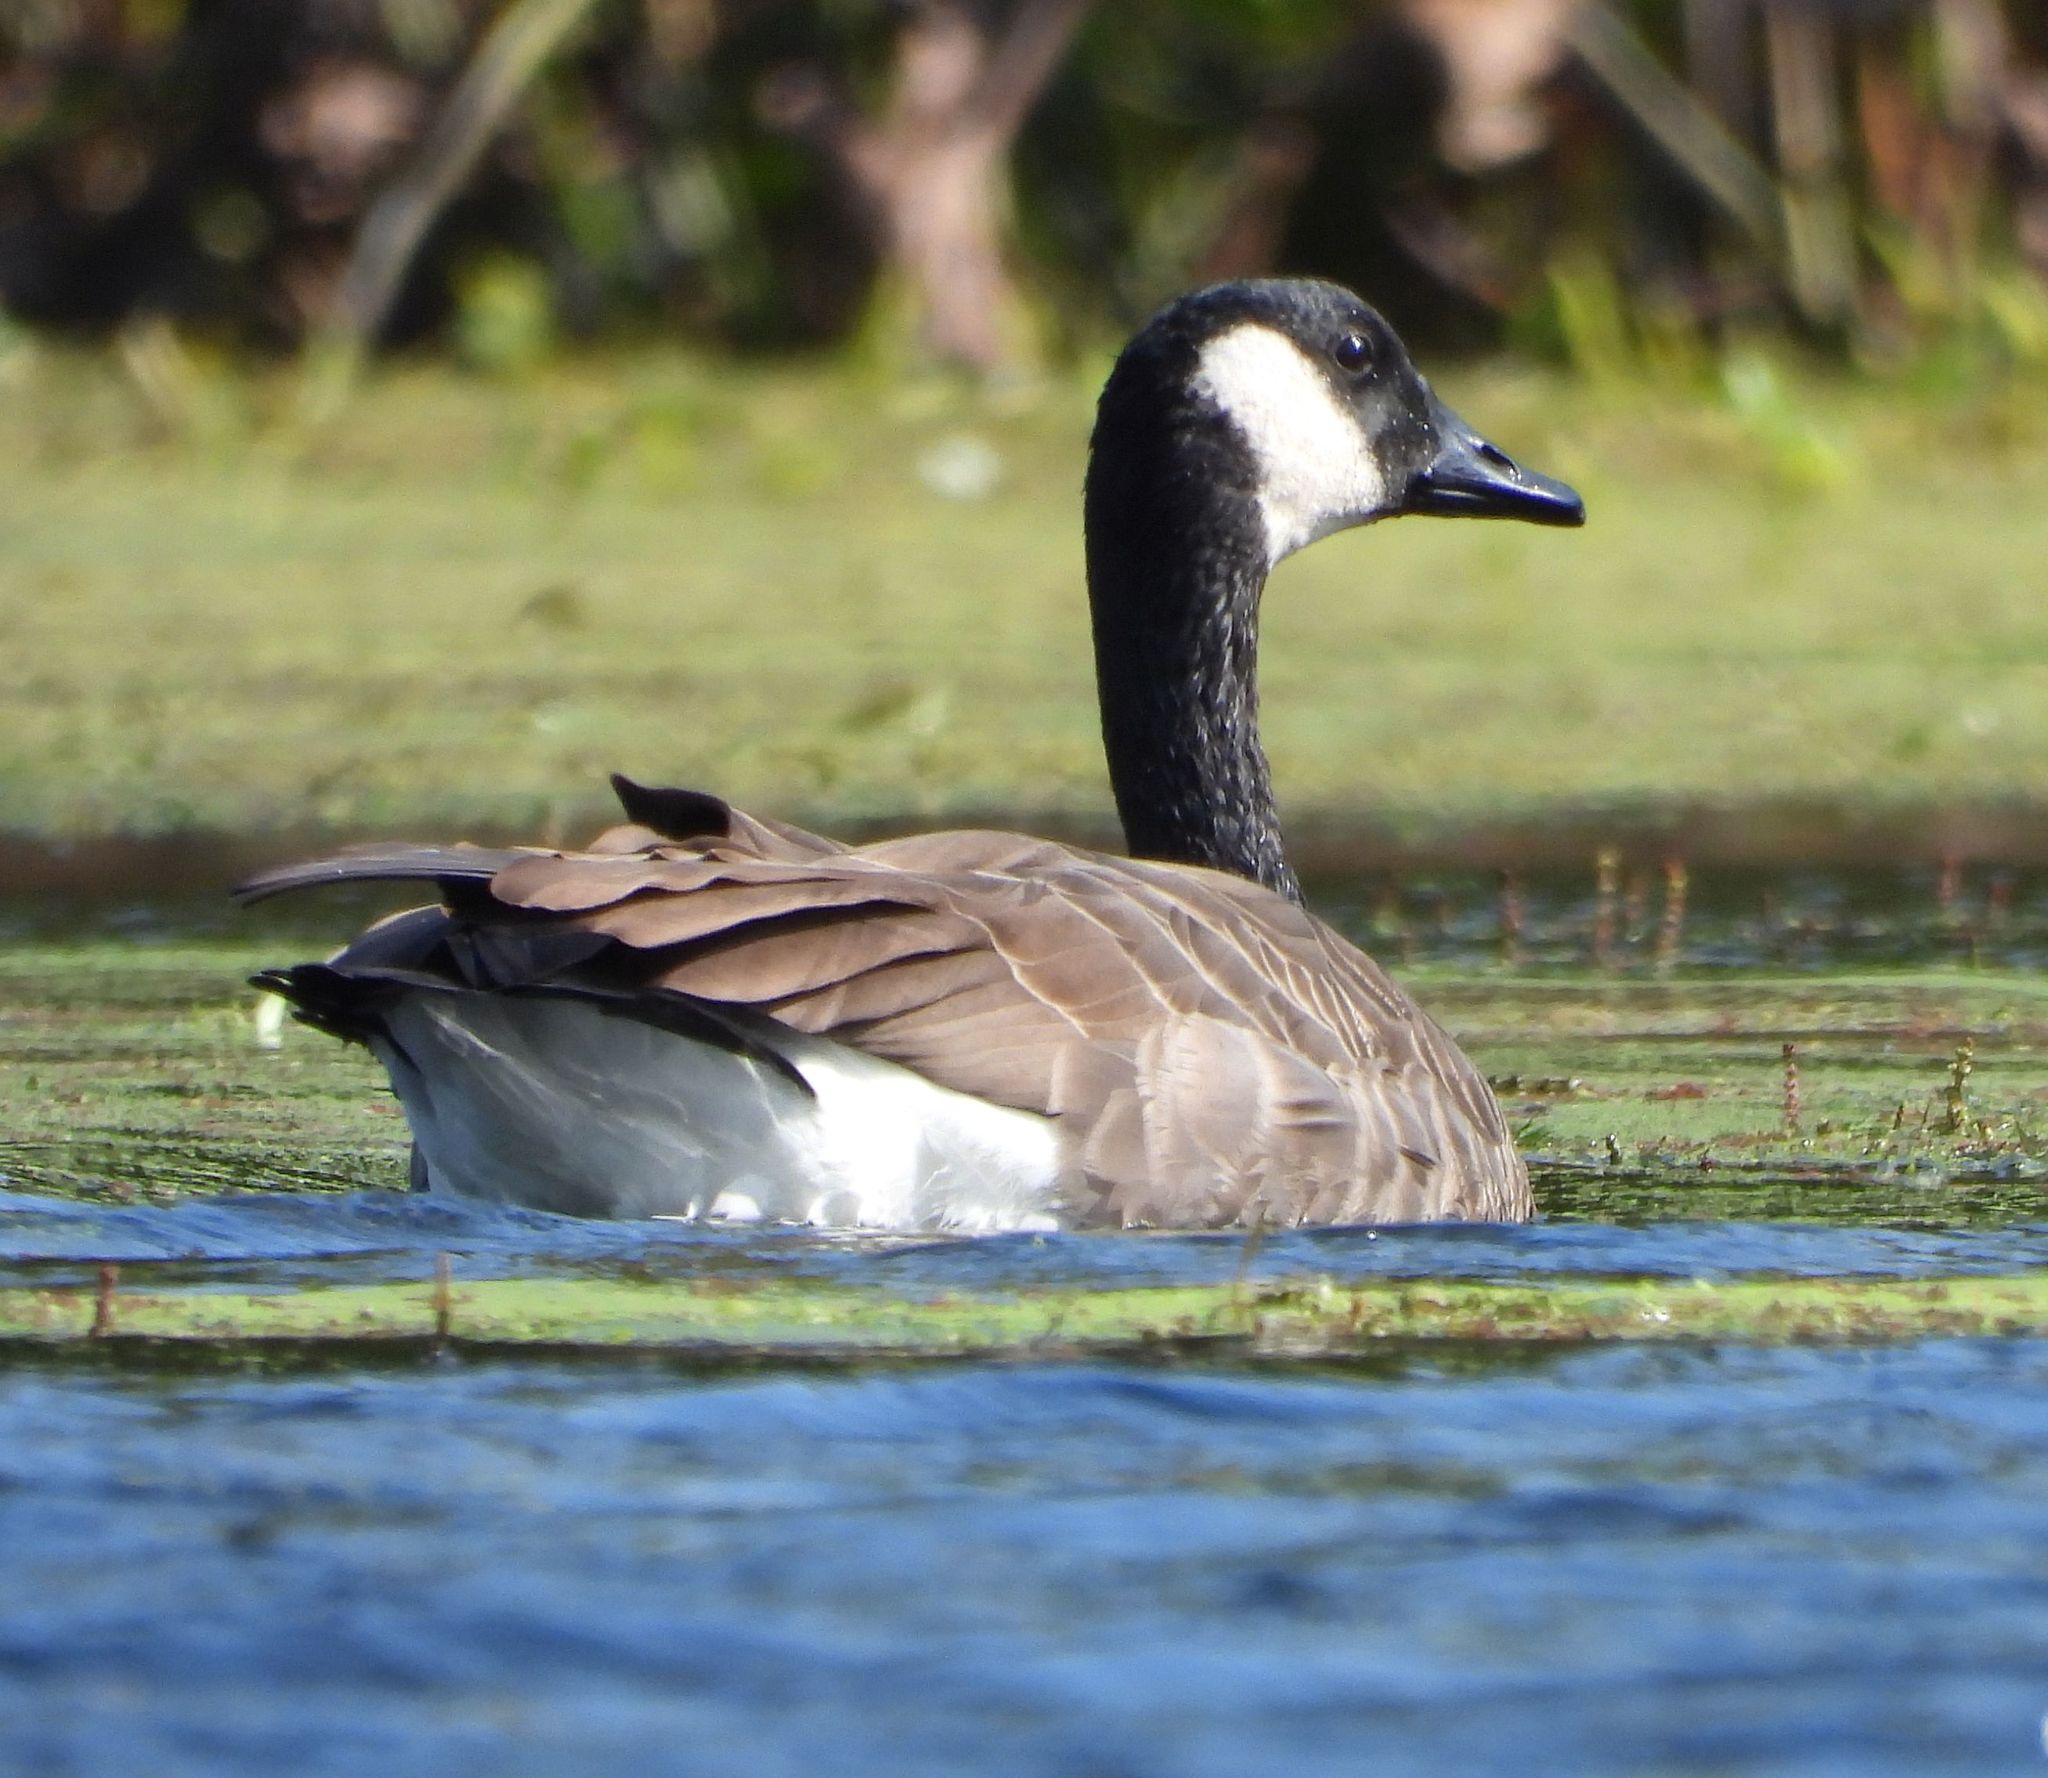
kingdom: Animalia
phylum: Chordata
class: Aves
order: Anseriformes
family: Anatidae
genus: Branta
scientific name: Branta canadensis
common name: Canada goose
